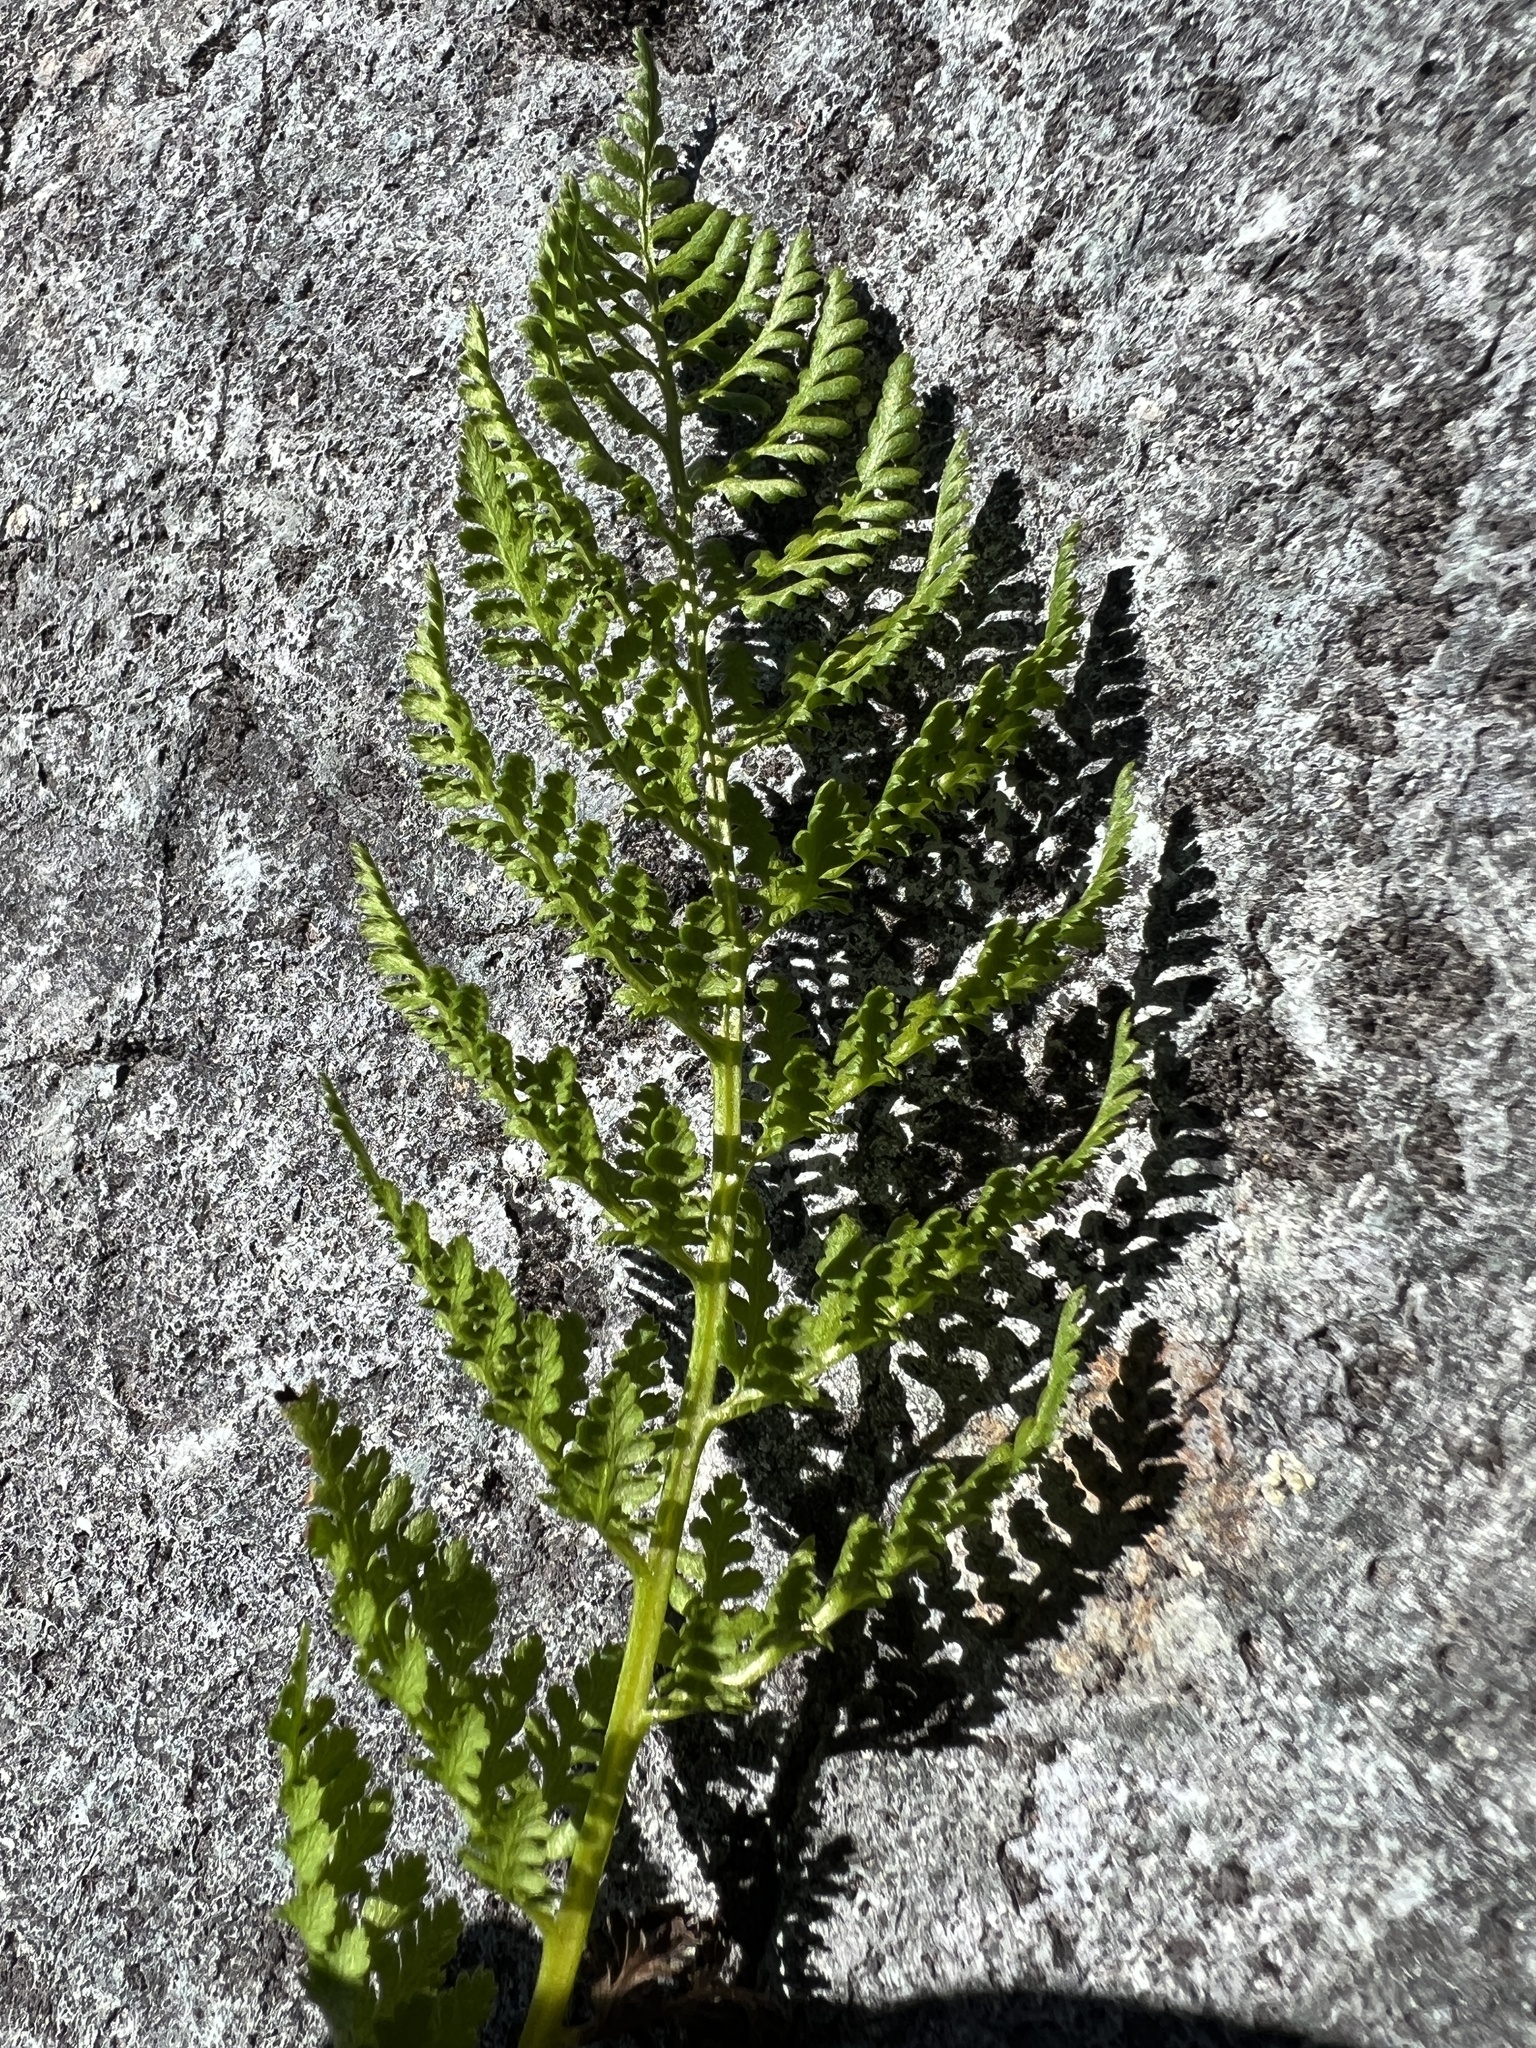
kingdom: Plantae
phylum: Tracheophyta
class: Polypodiopsida
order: Polypodiales
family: Athyriaceae
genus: Athyrium
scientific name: Athyrium americanum
